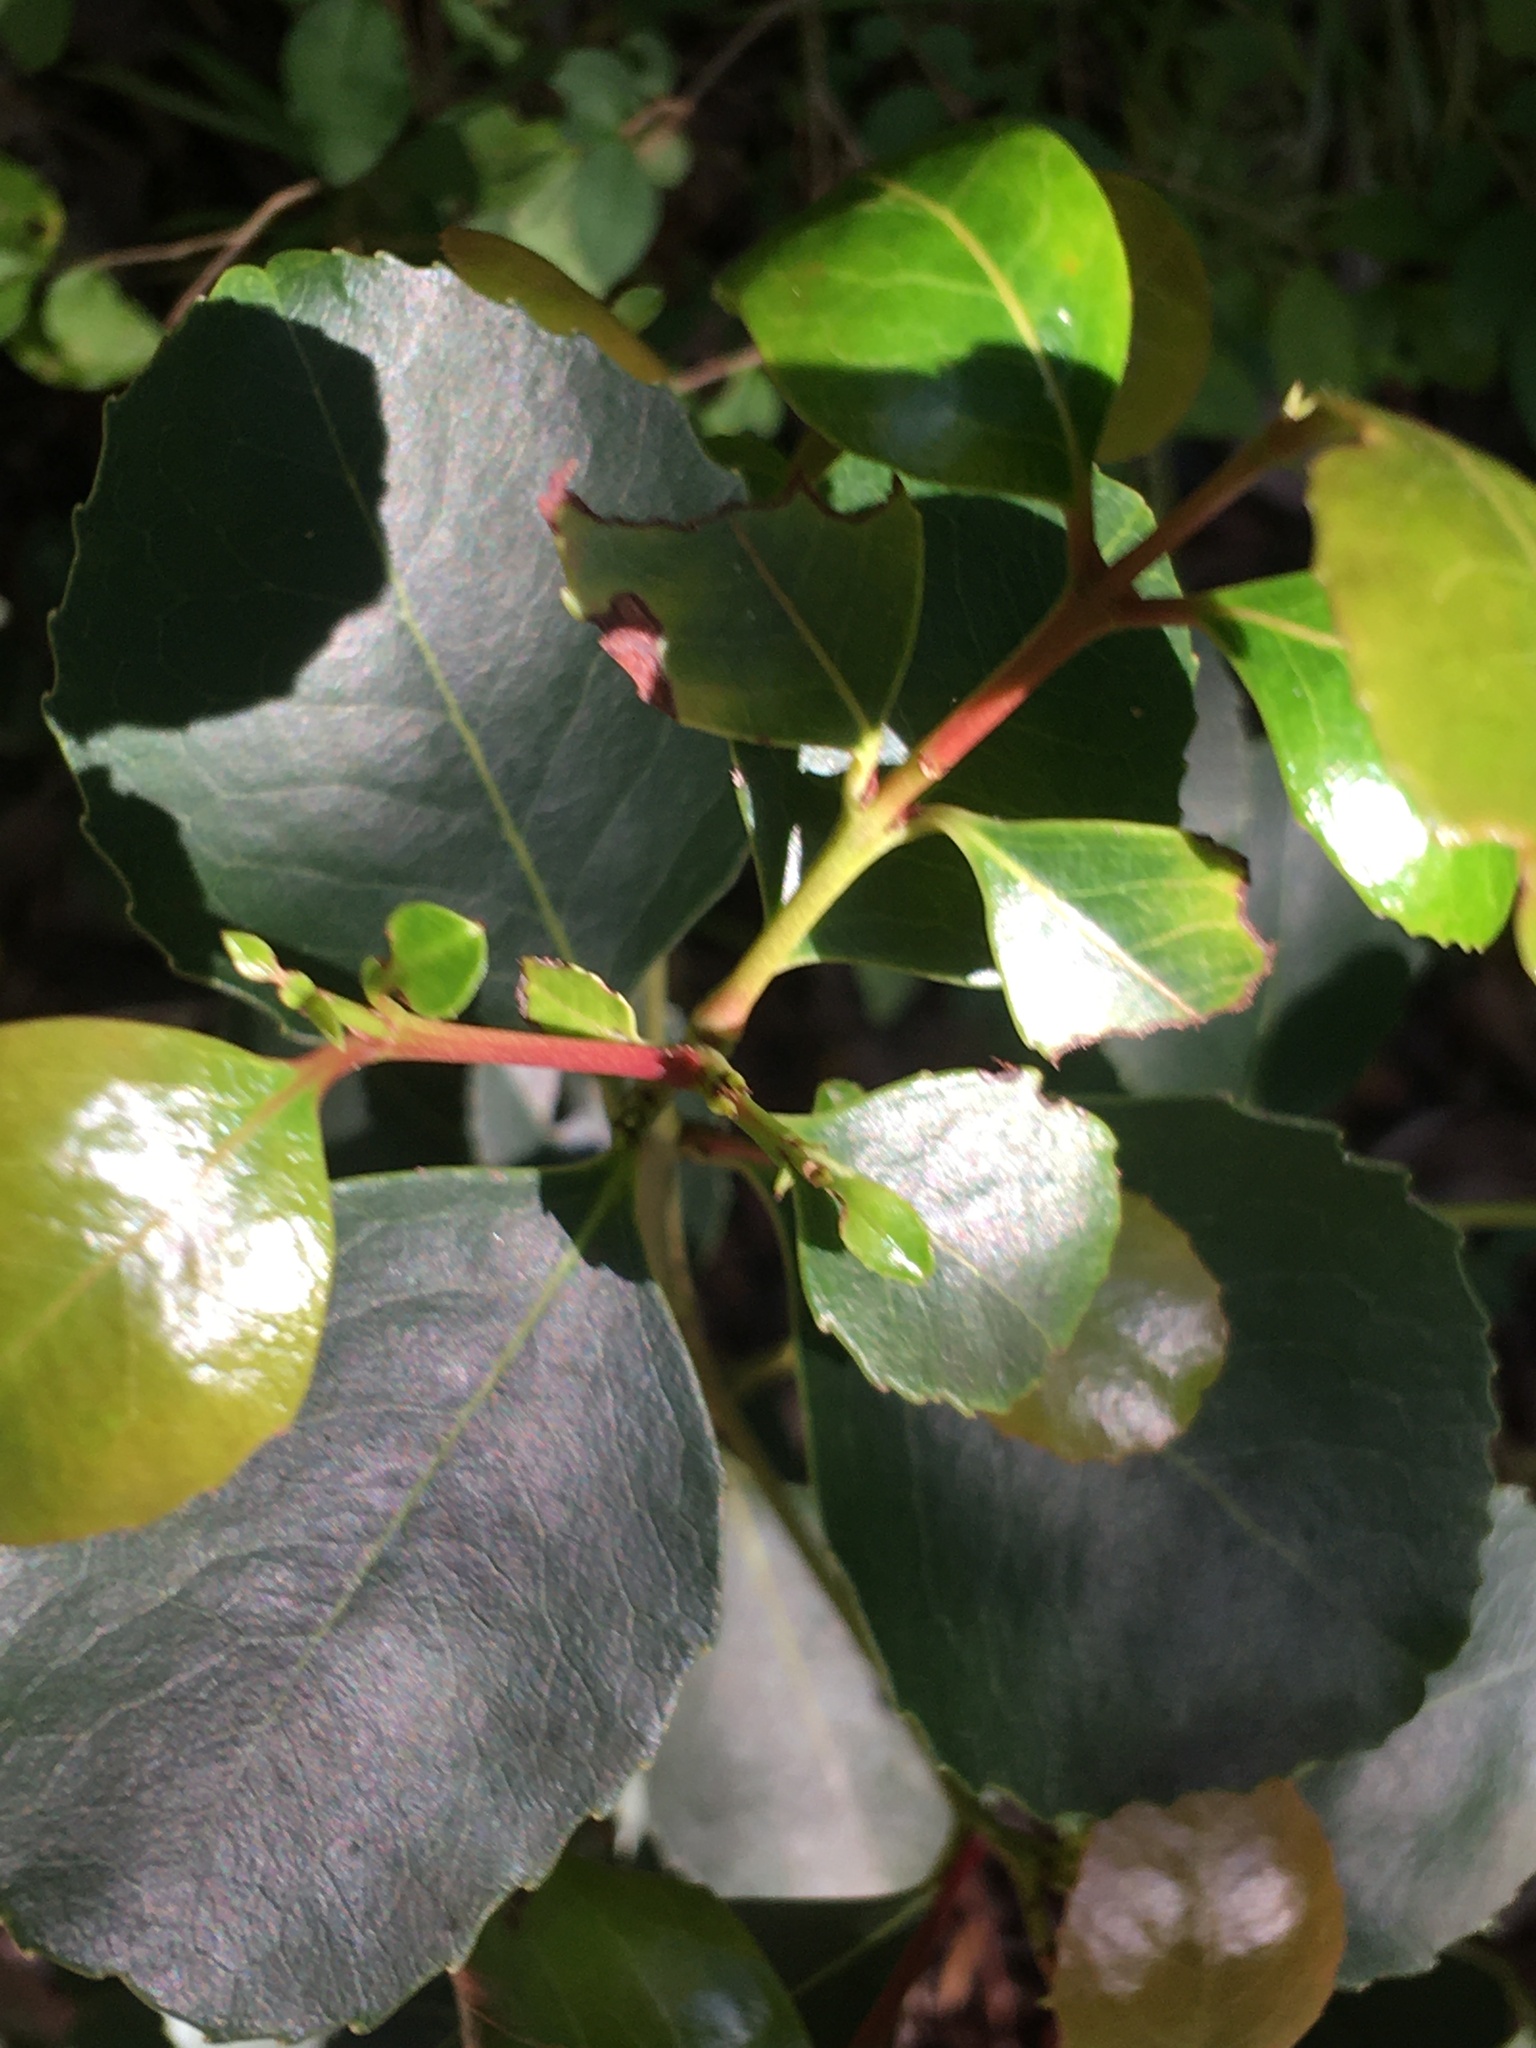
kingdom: Plantae
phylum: Tracheophyta
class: Magnoliopsida
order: Celastrales
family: Celastraceae
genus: Cassine
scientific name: Cassine peragua
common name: Cape saffron
